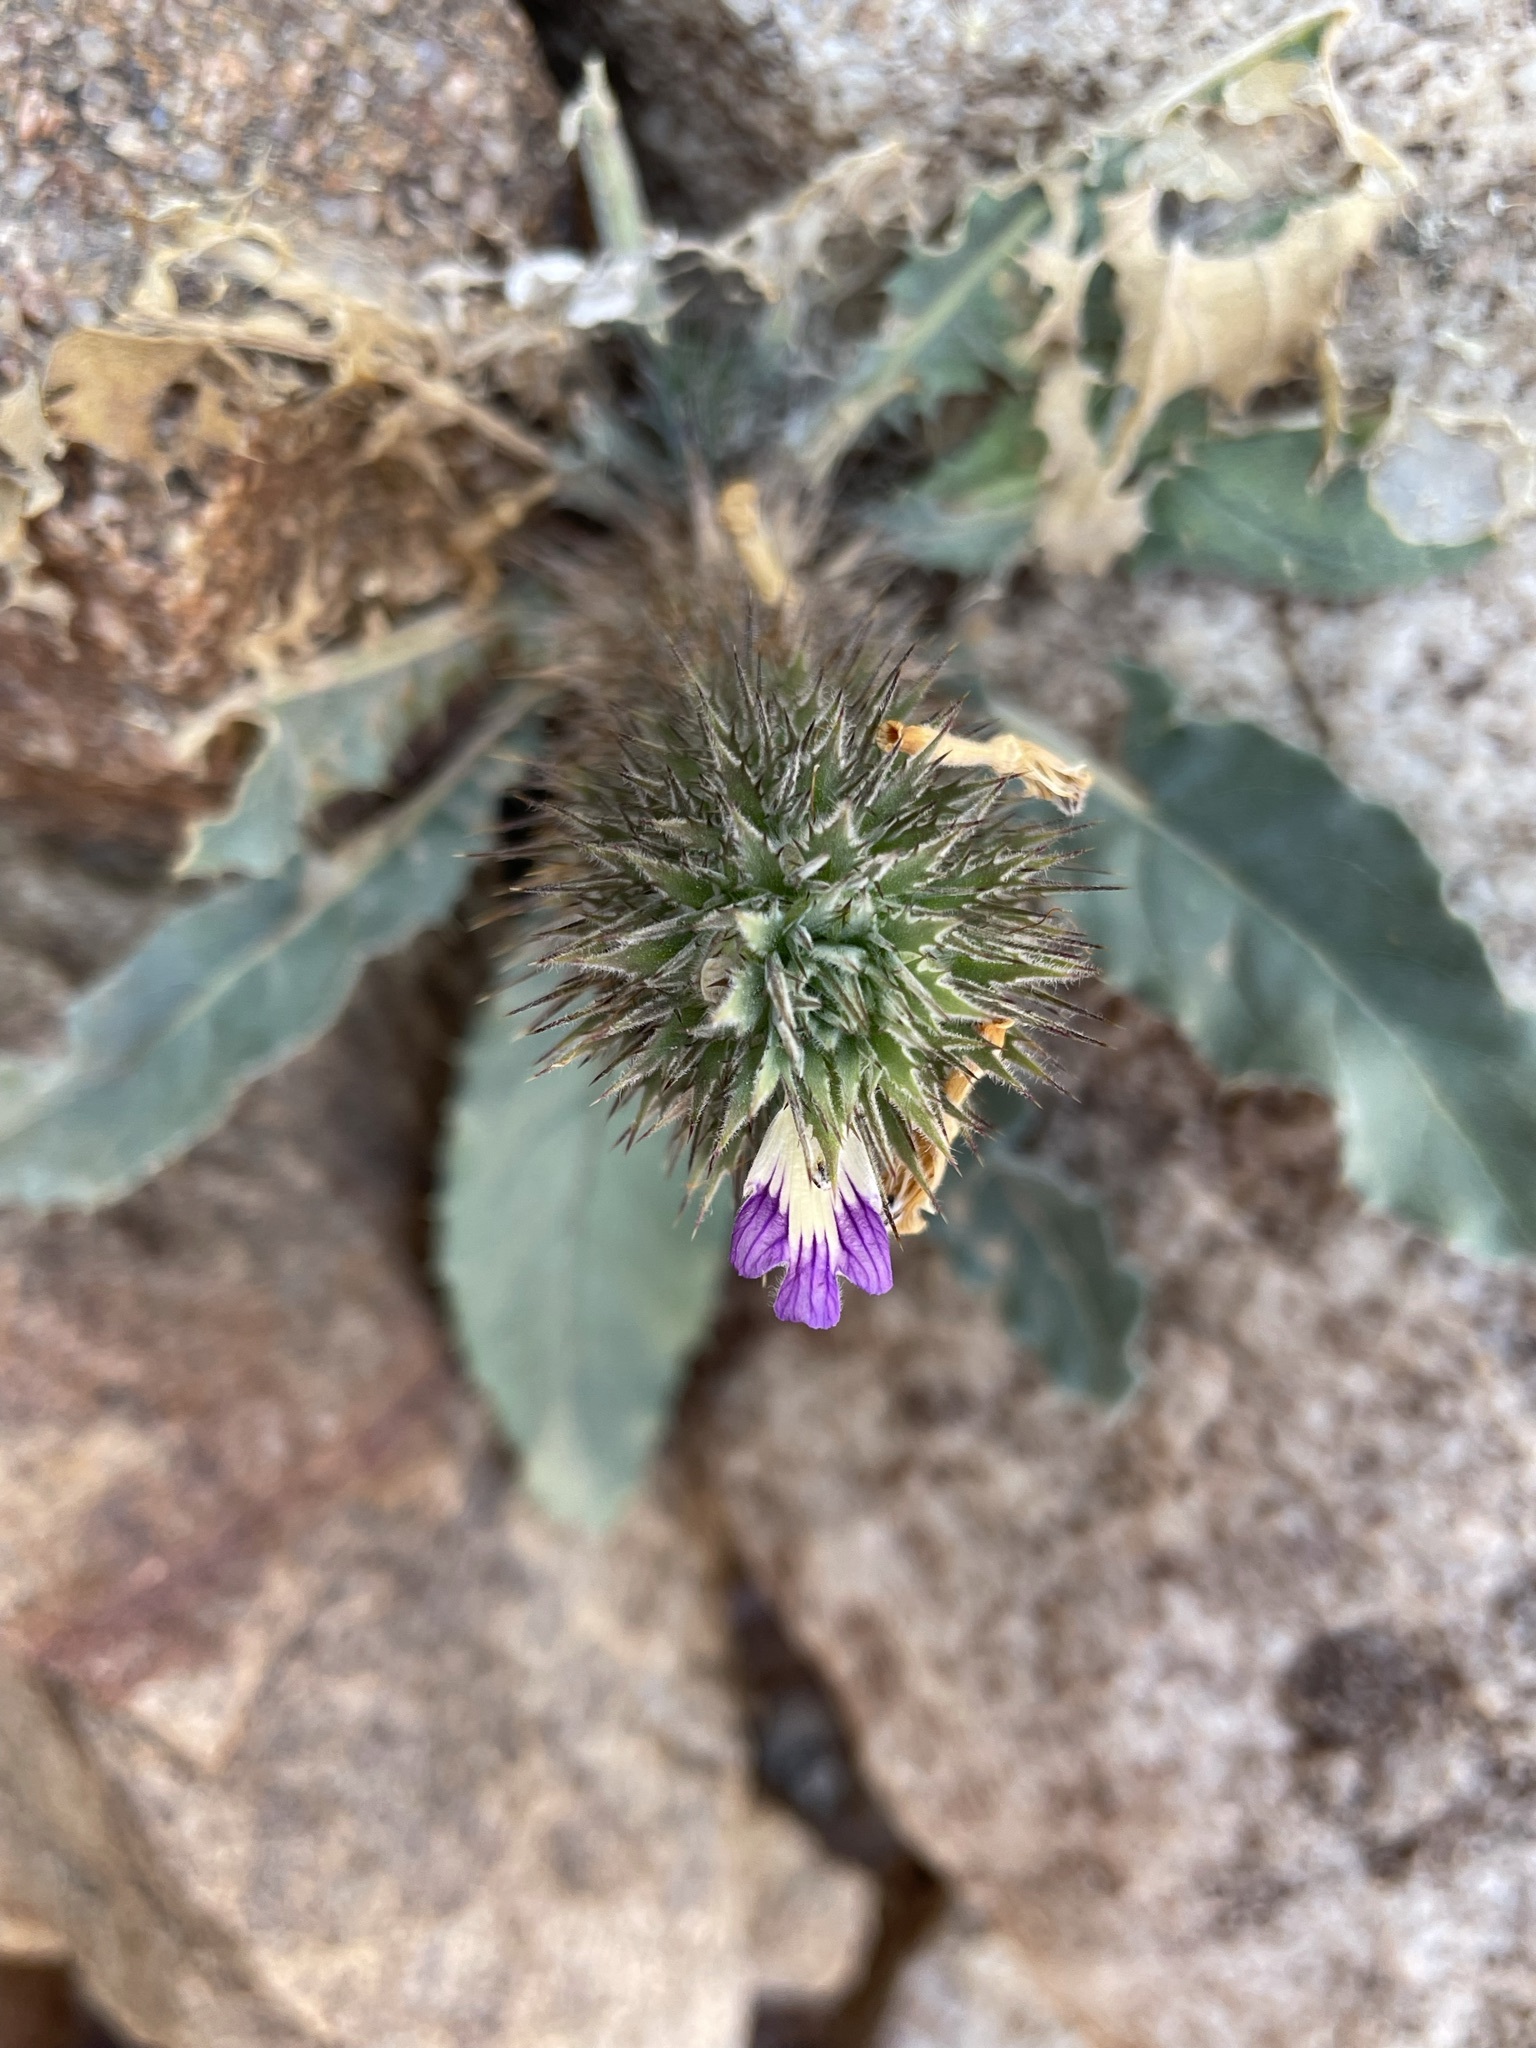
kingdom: Plantae
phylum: Tracheophyta
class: Magnoliopsida
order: Lamiales
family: Acanthaceae
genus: Acanthopsis
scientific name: Acanthopsis disperma
